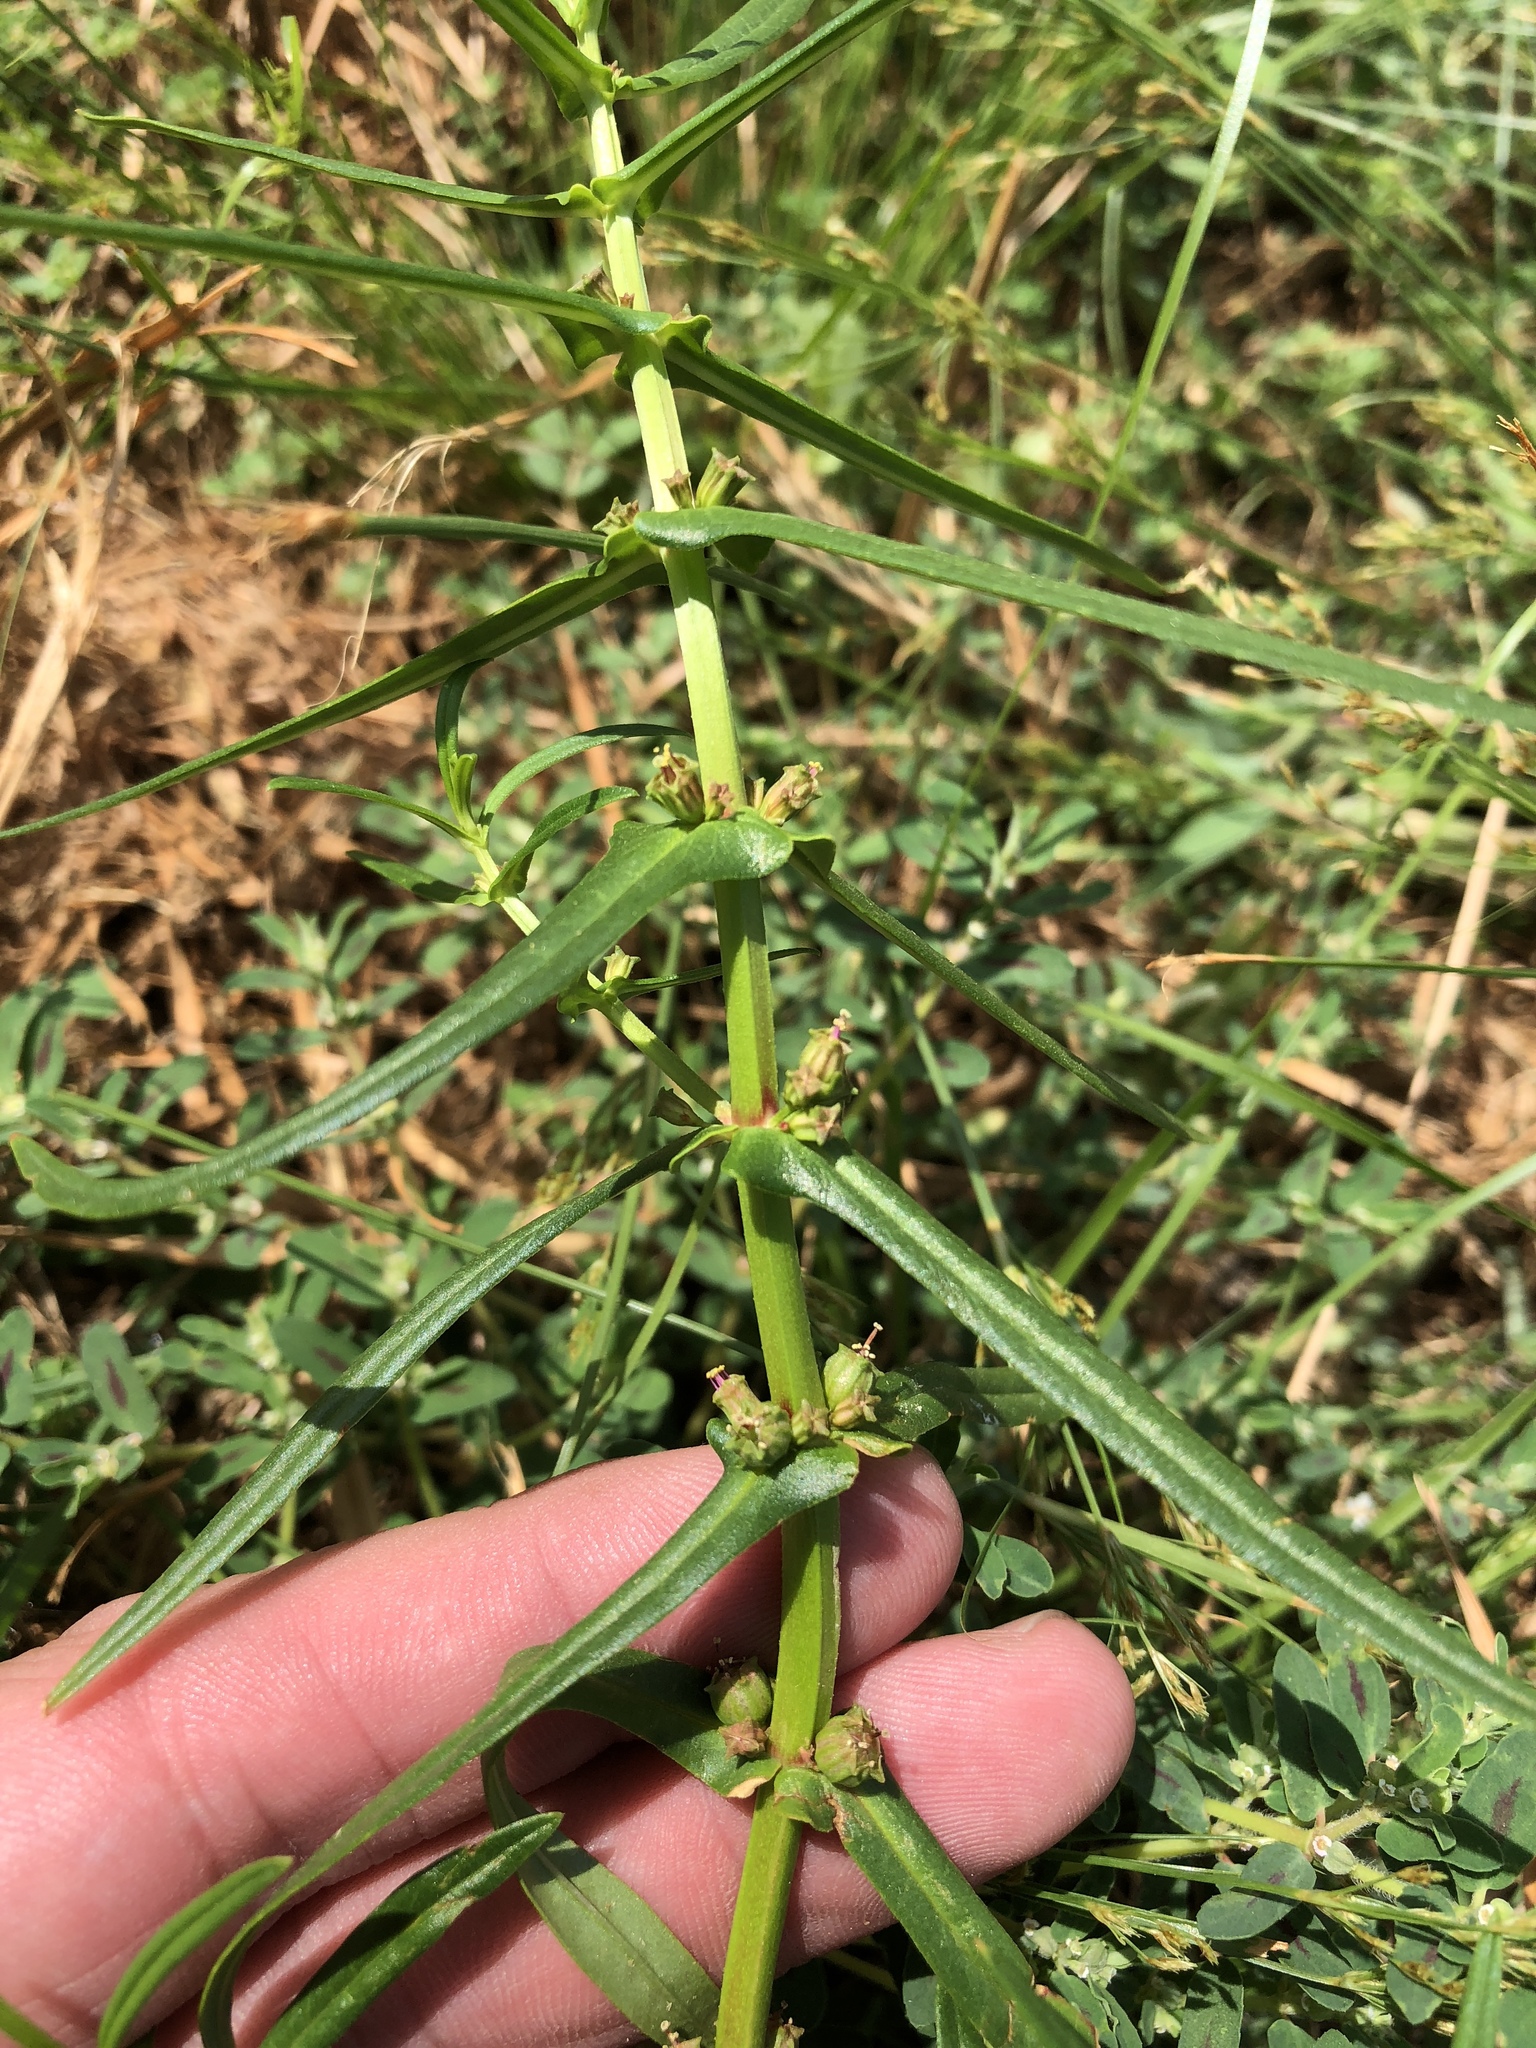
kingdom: Plantae
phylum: Tracheophyta
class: Magnoliopsida
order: Myrtales
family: Lythraceae
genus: Ammannia
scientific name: Ammannia coccinea
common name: Valley redstem
